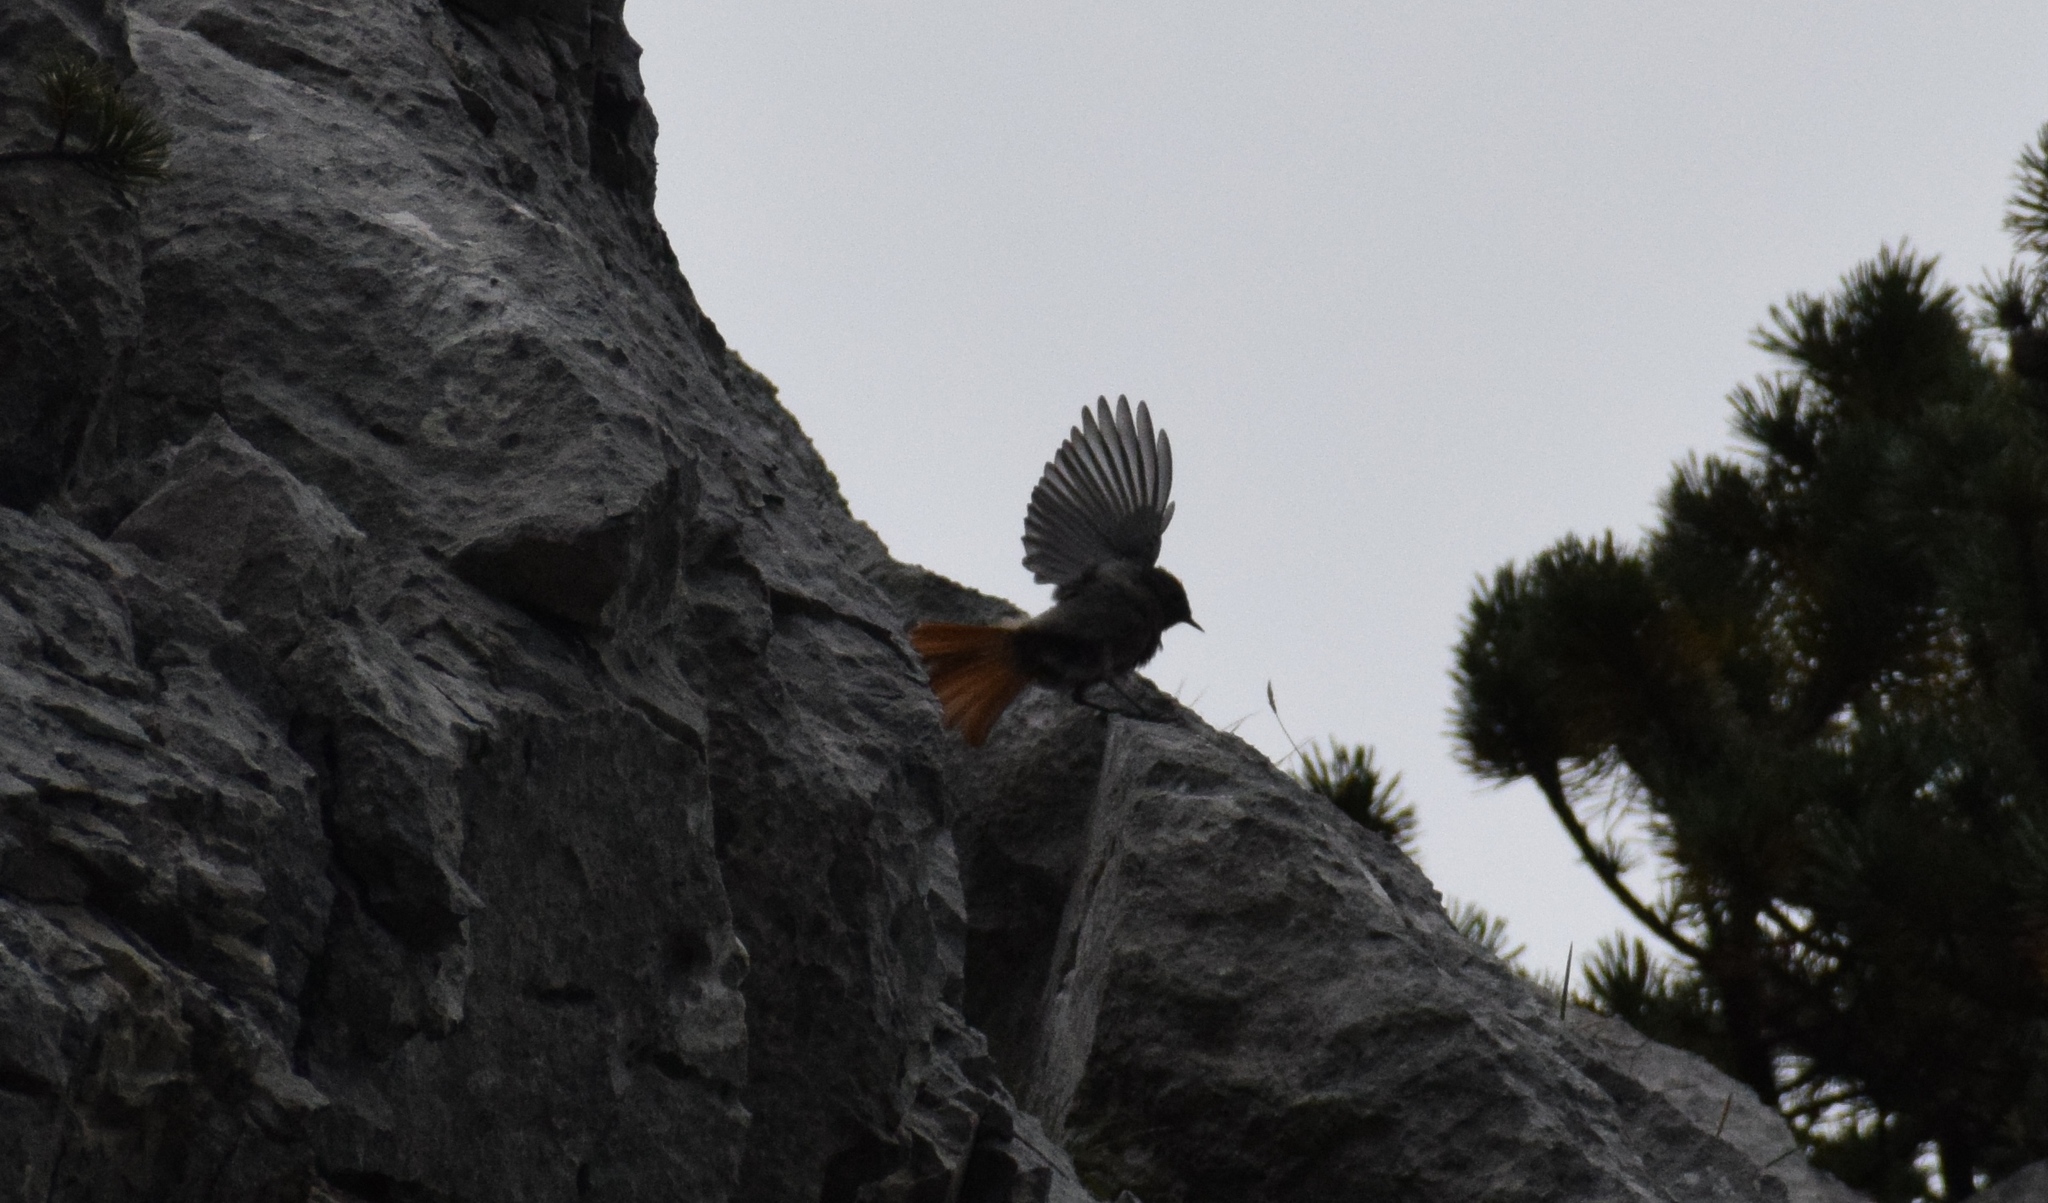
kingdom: Animalia
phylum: Chordata
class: Aves
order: Passeriformes
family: Muscicapidae
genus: Phoenicurus
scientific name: Phoenicurus ochruros
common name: Black redstart
